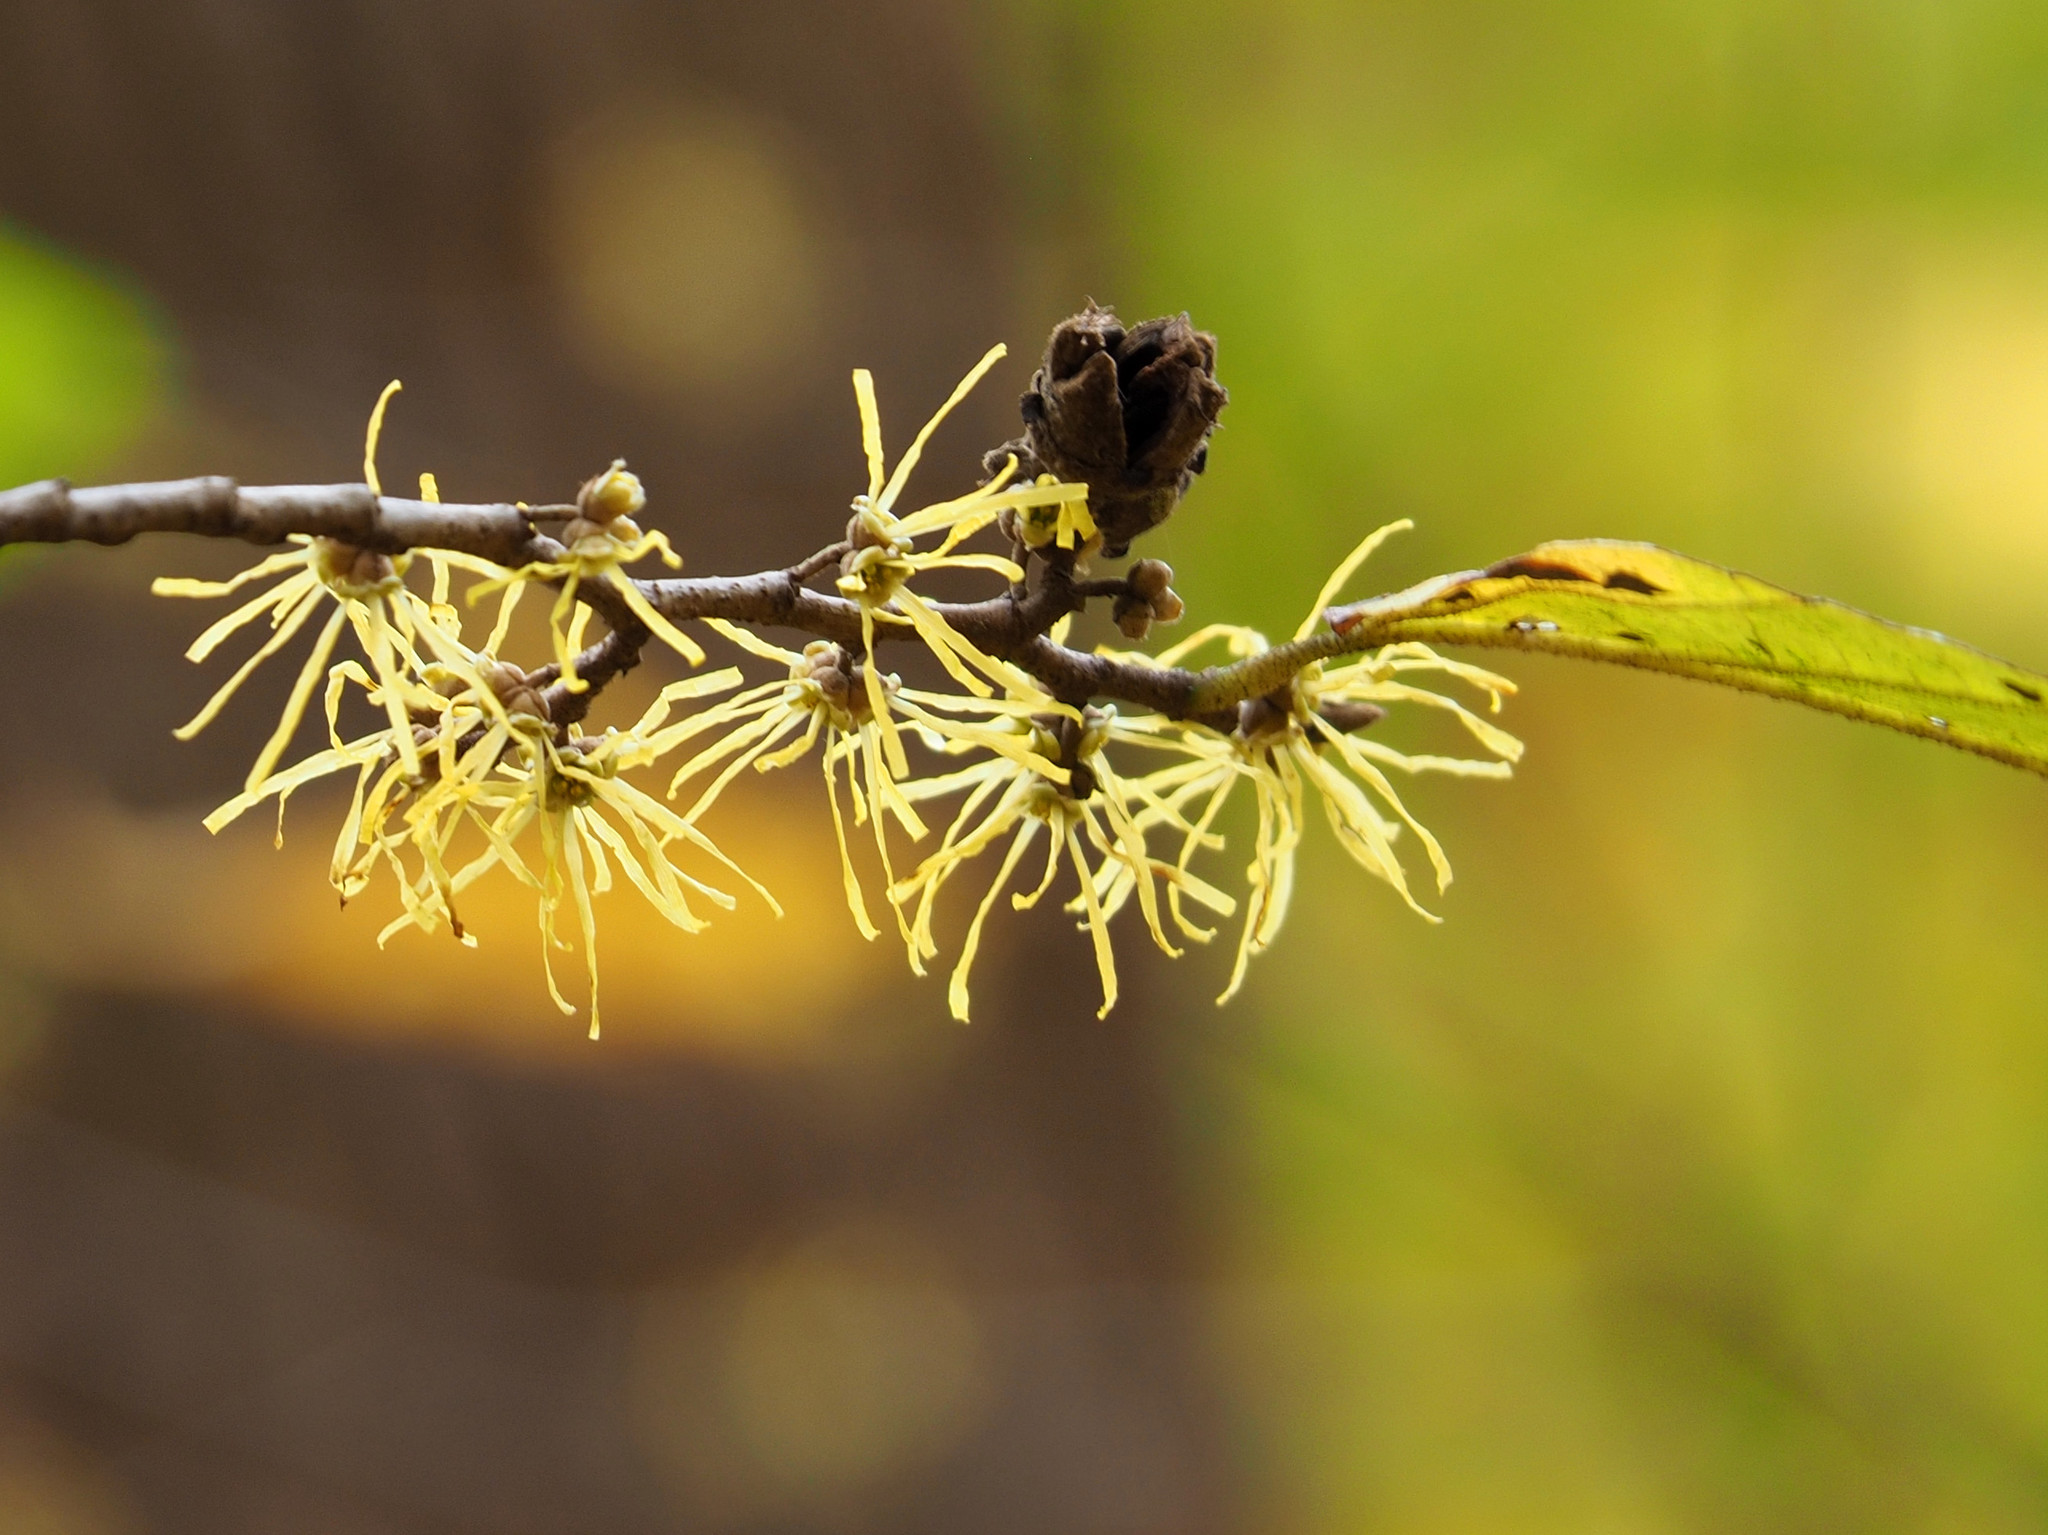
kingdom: Plantae
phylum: Tracheophyta
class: Magnoliopsida
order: Saxifragales
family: Hamamelidaceae
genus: Hamamelis
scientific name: Hamamelis virginiana
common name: Witch-hazel
